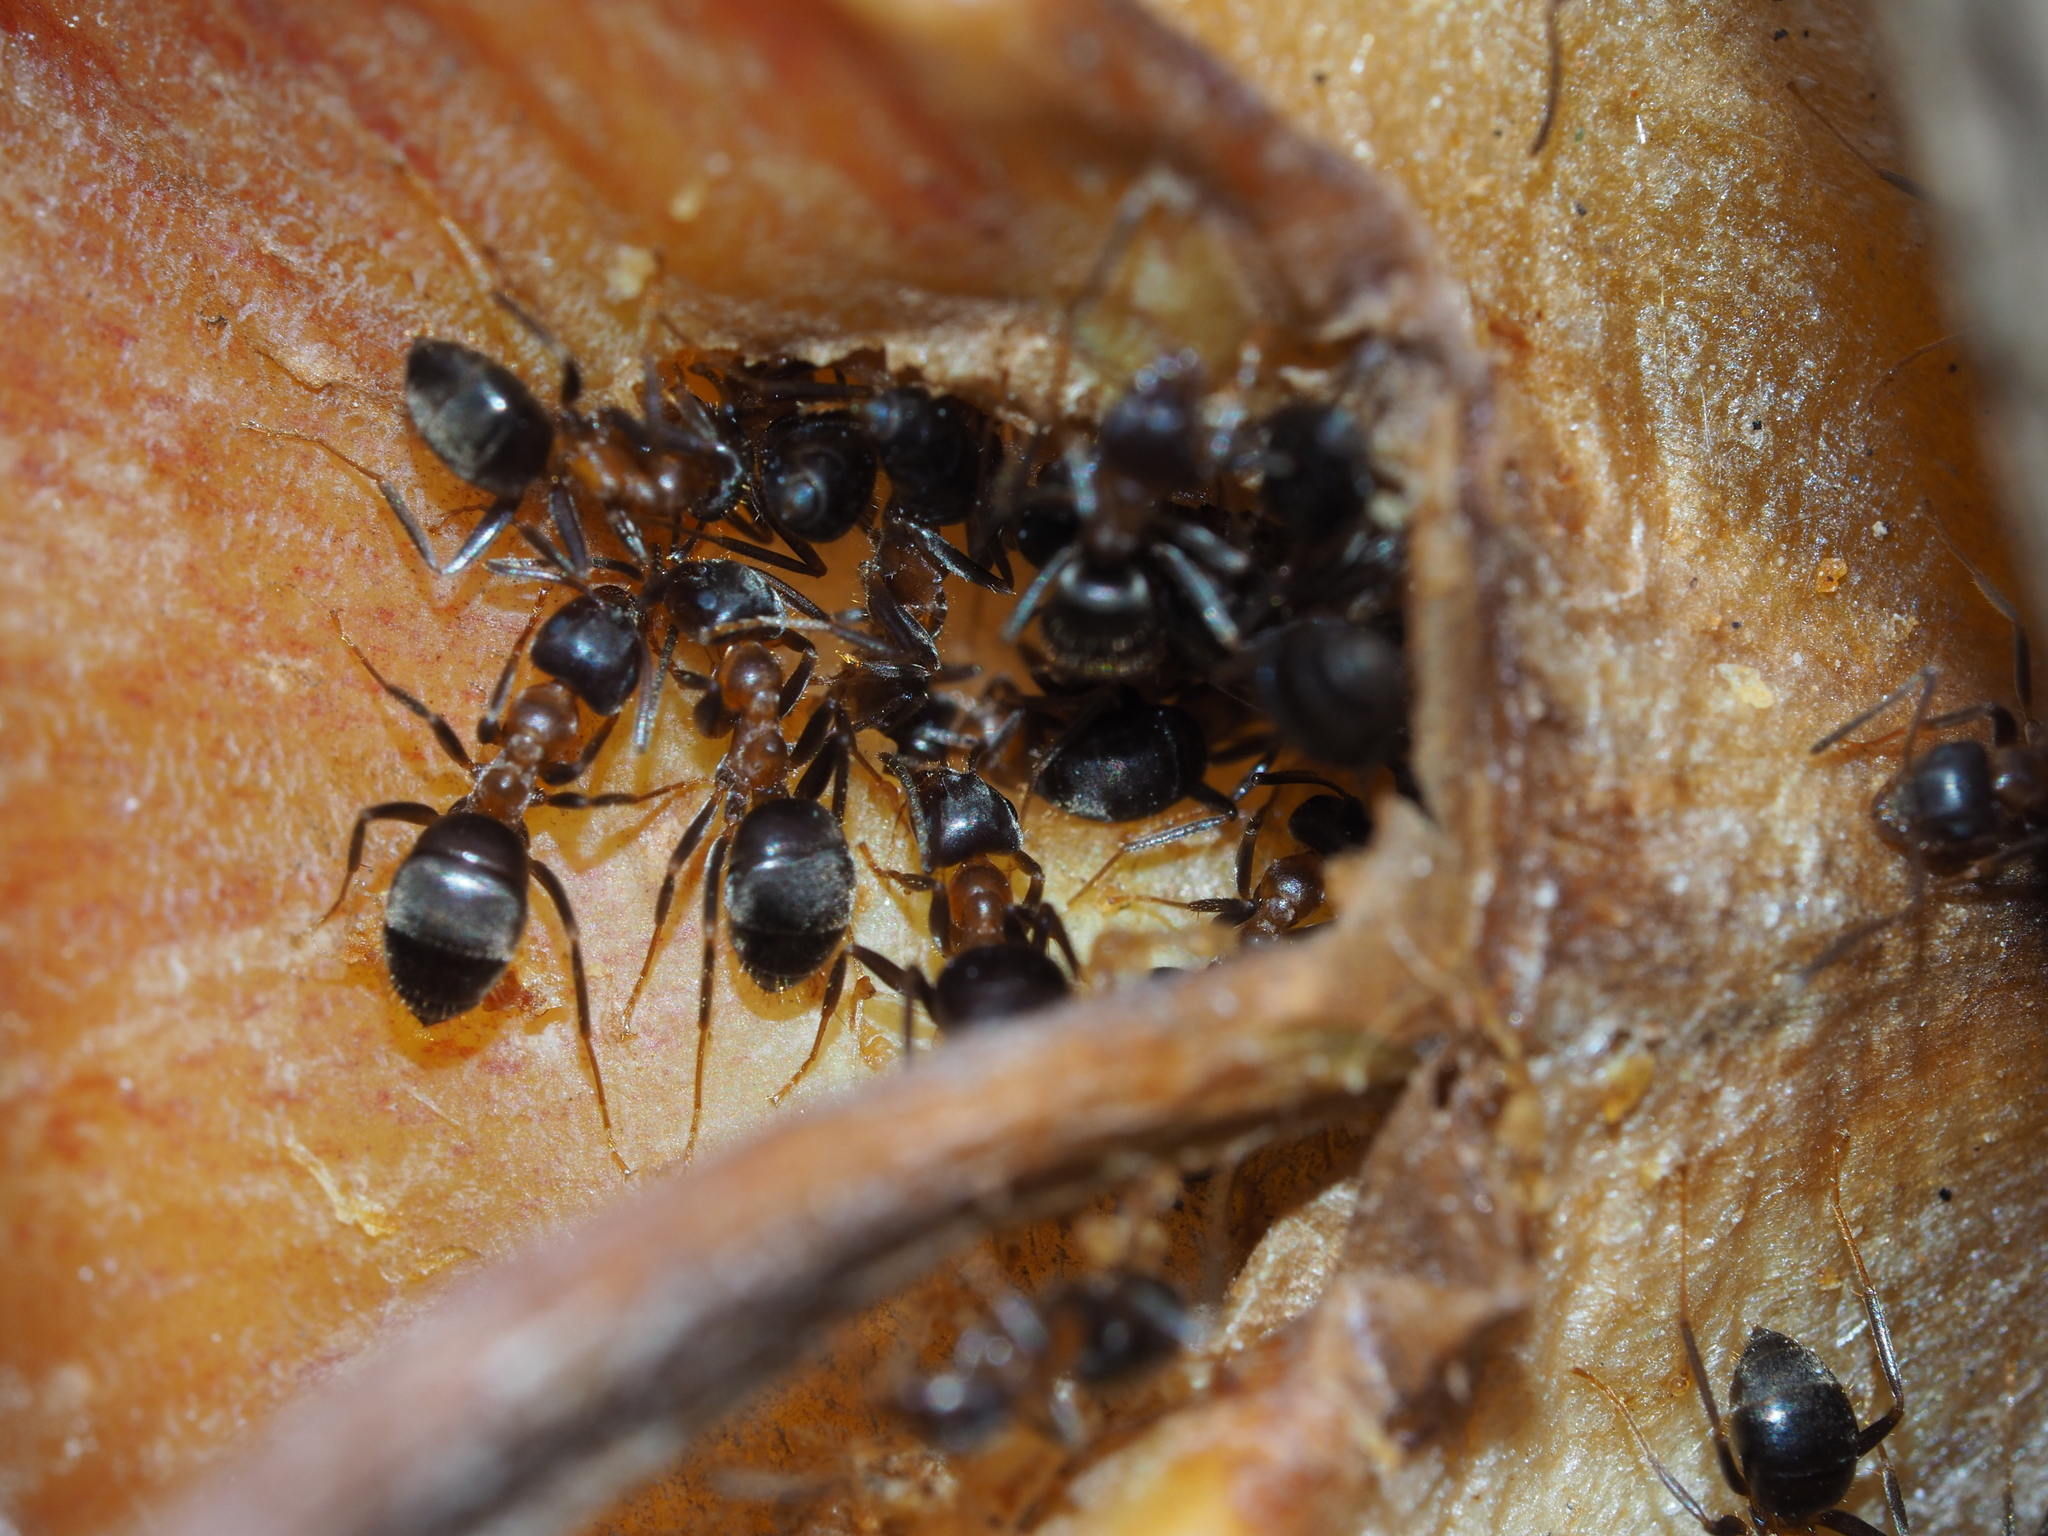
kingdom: Animalia
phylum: Arthropoda
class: Insecta
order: Hymenoptera
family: Formicidae
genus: Lasius
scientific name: Lasius emarginatus
